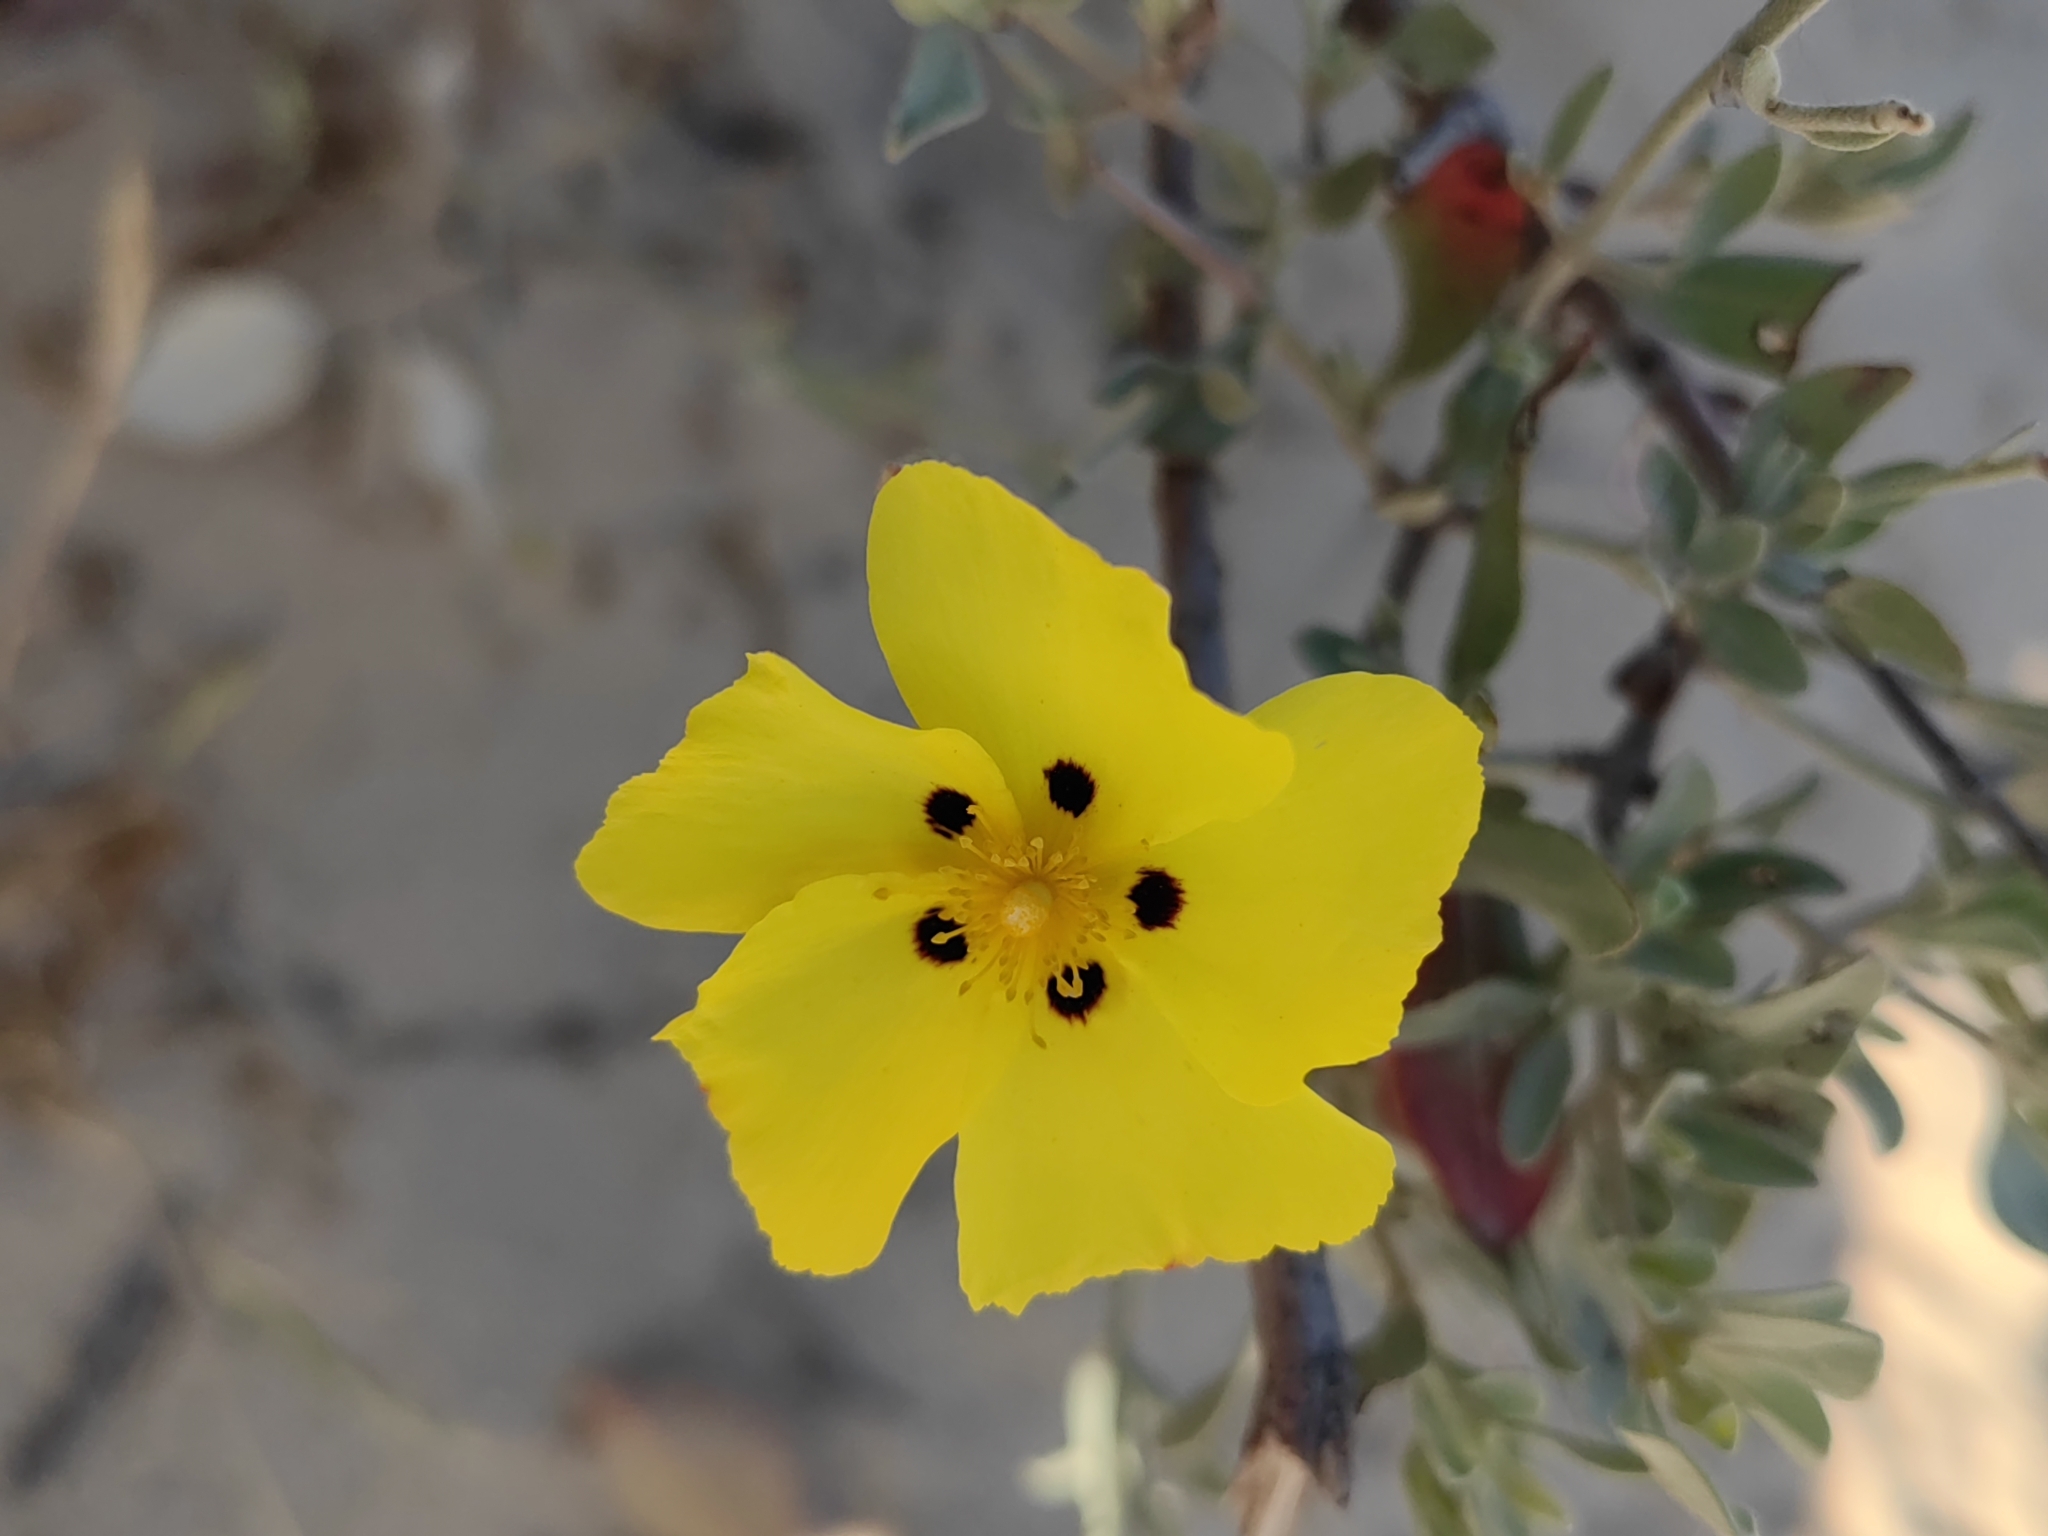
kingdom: Plantae
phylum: Tracheophyta
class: Magnoliopsida
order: Malvales
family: Cistaceae
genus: Halimium
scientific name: Halimium halimifolium
